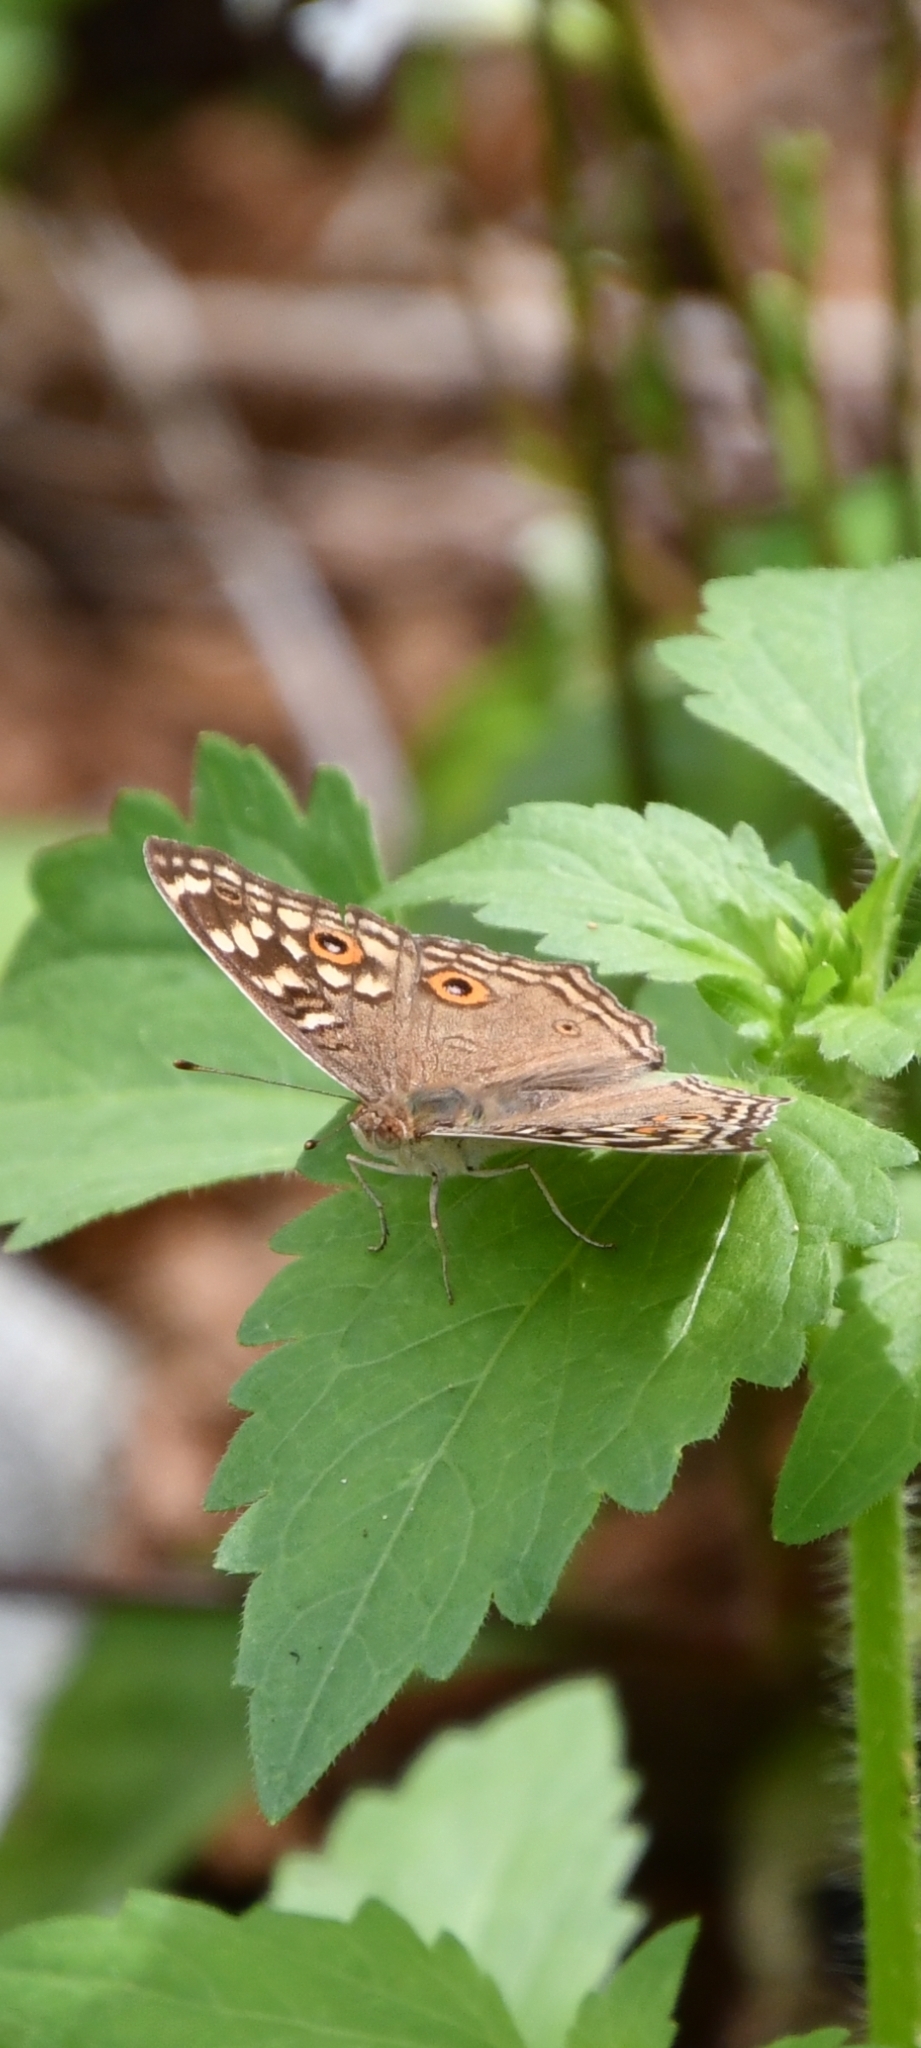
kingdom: Animalia
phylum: Arthropoda
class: Insecta
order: Lepidoptera
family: Nymphalidae
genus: Junonia
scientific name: Junonia lemonias
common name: Lemon pansy
